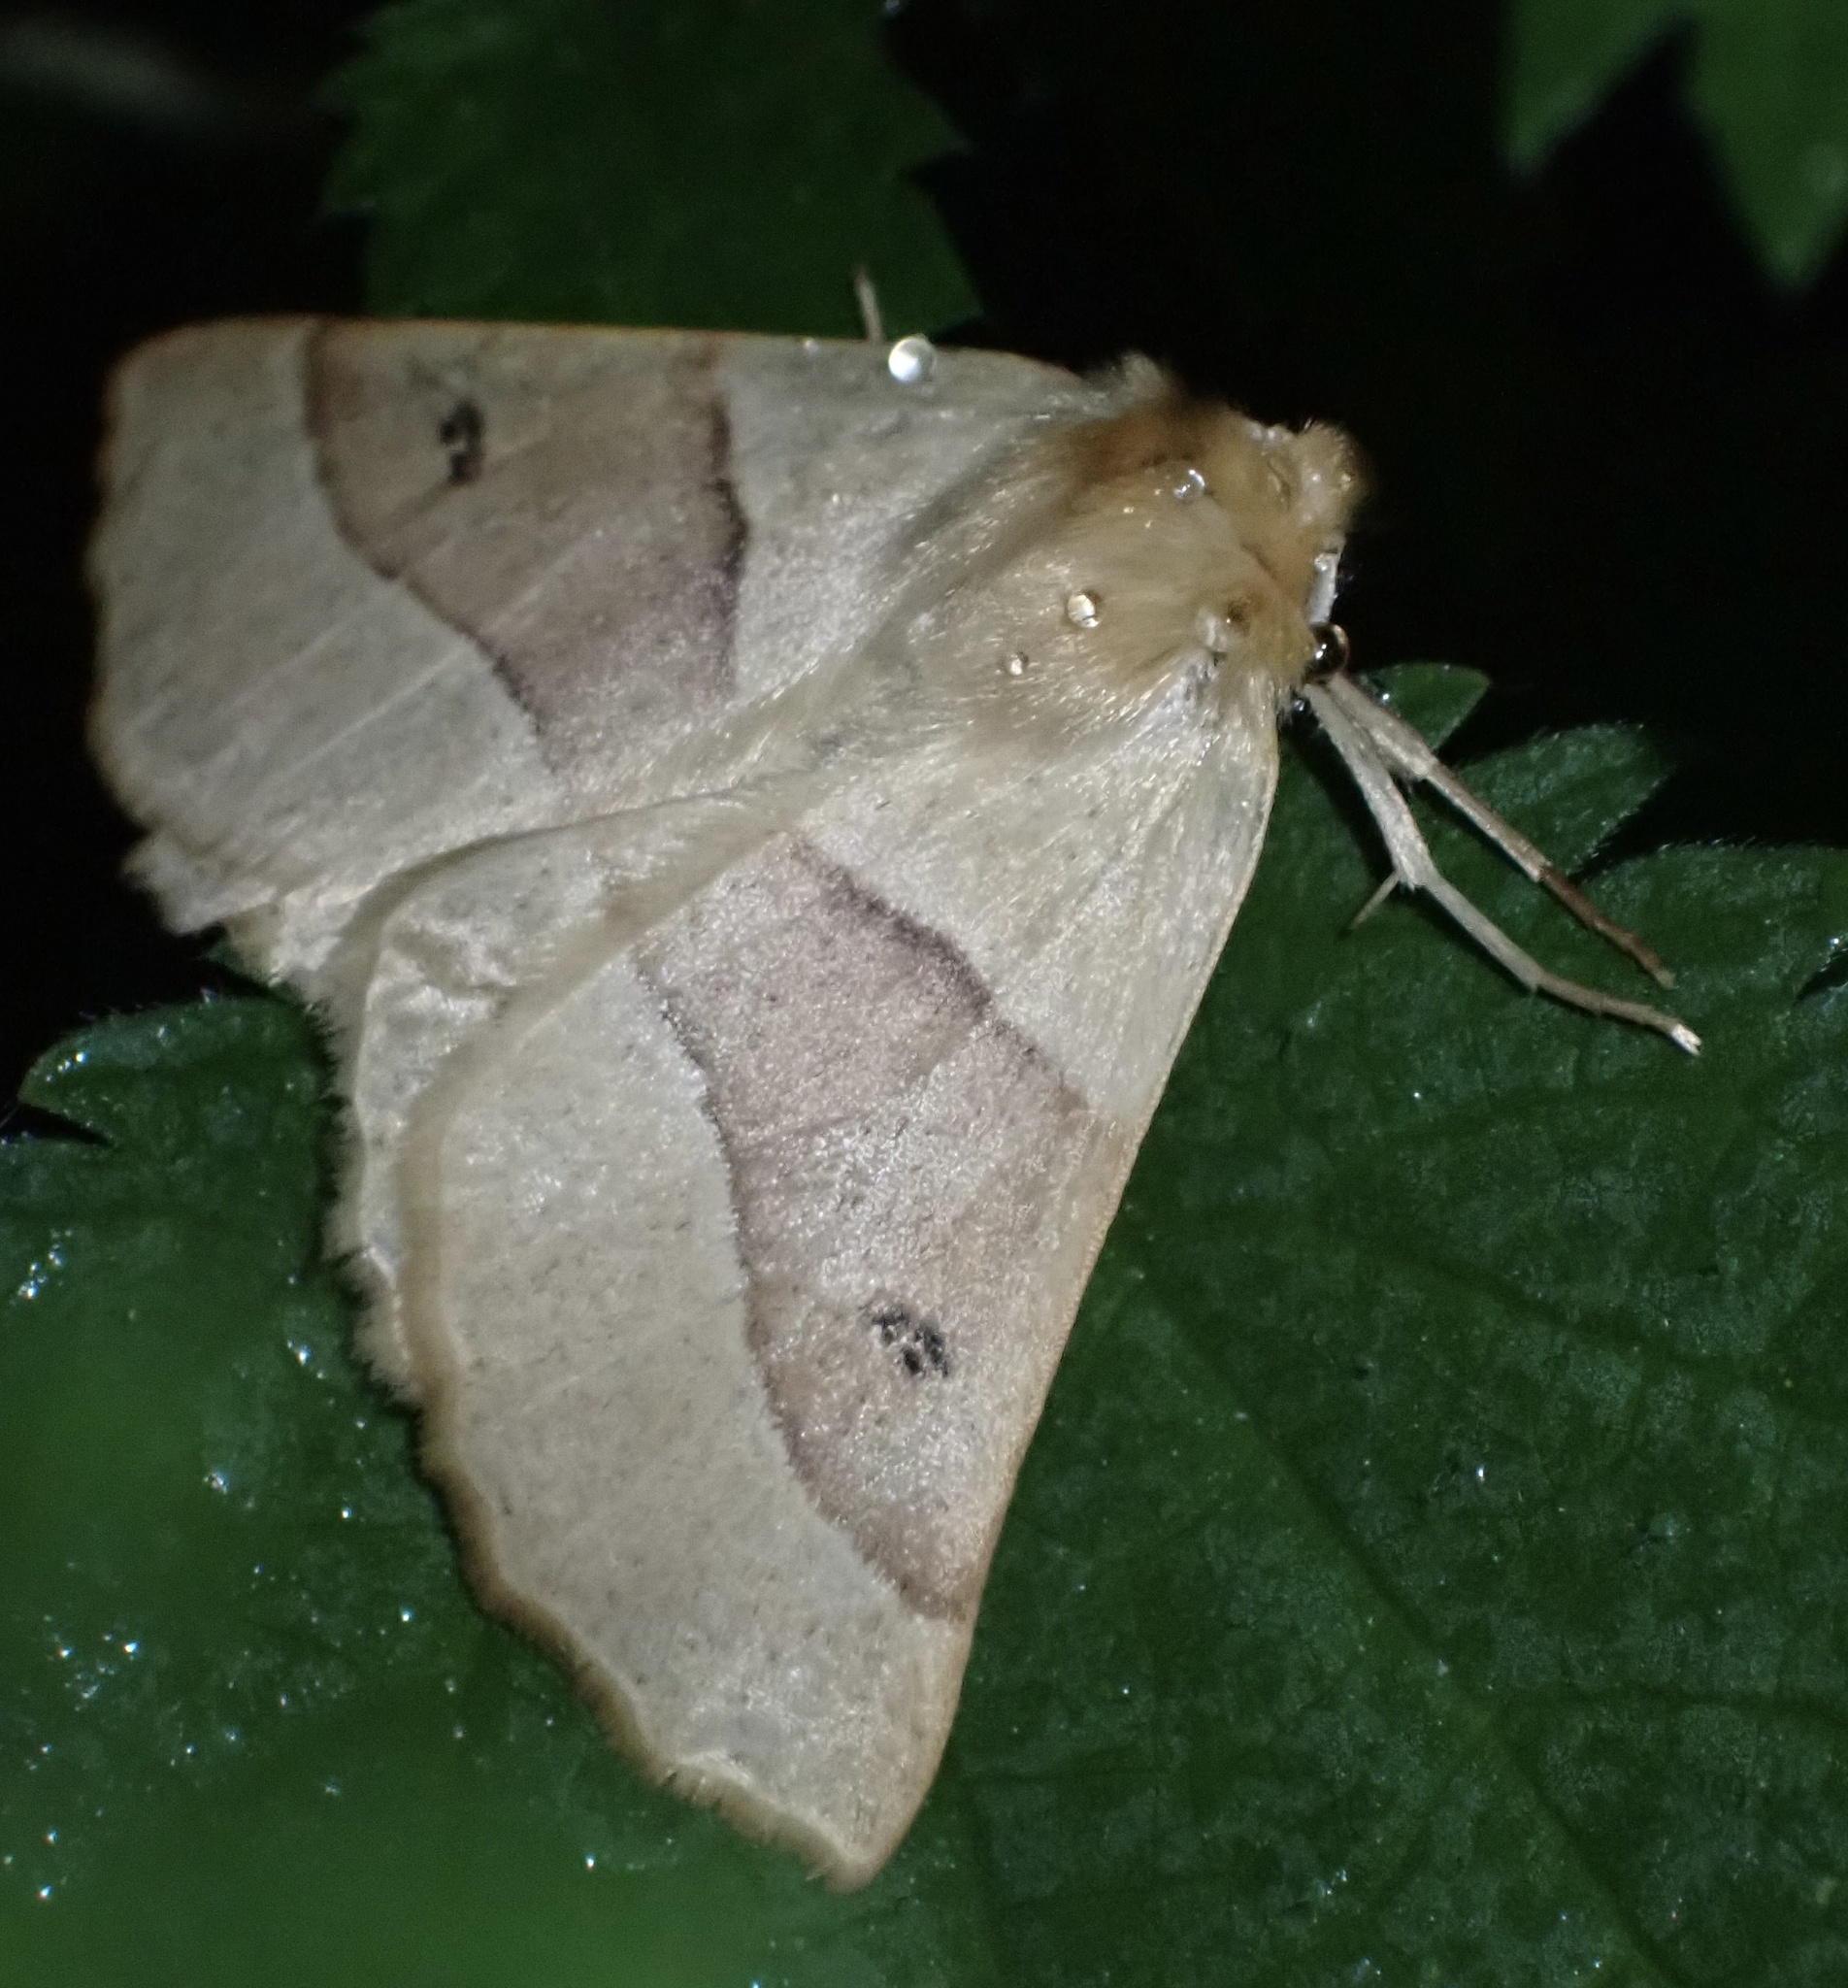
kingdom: Animalia
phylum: Arthropoda
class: Insecta
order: Lepidoptera
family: Geometridae
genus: Crocallis
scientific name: Crocallis elinguaria
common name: Scalloped oak
